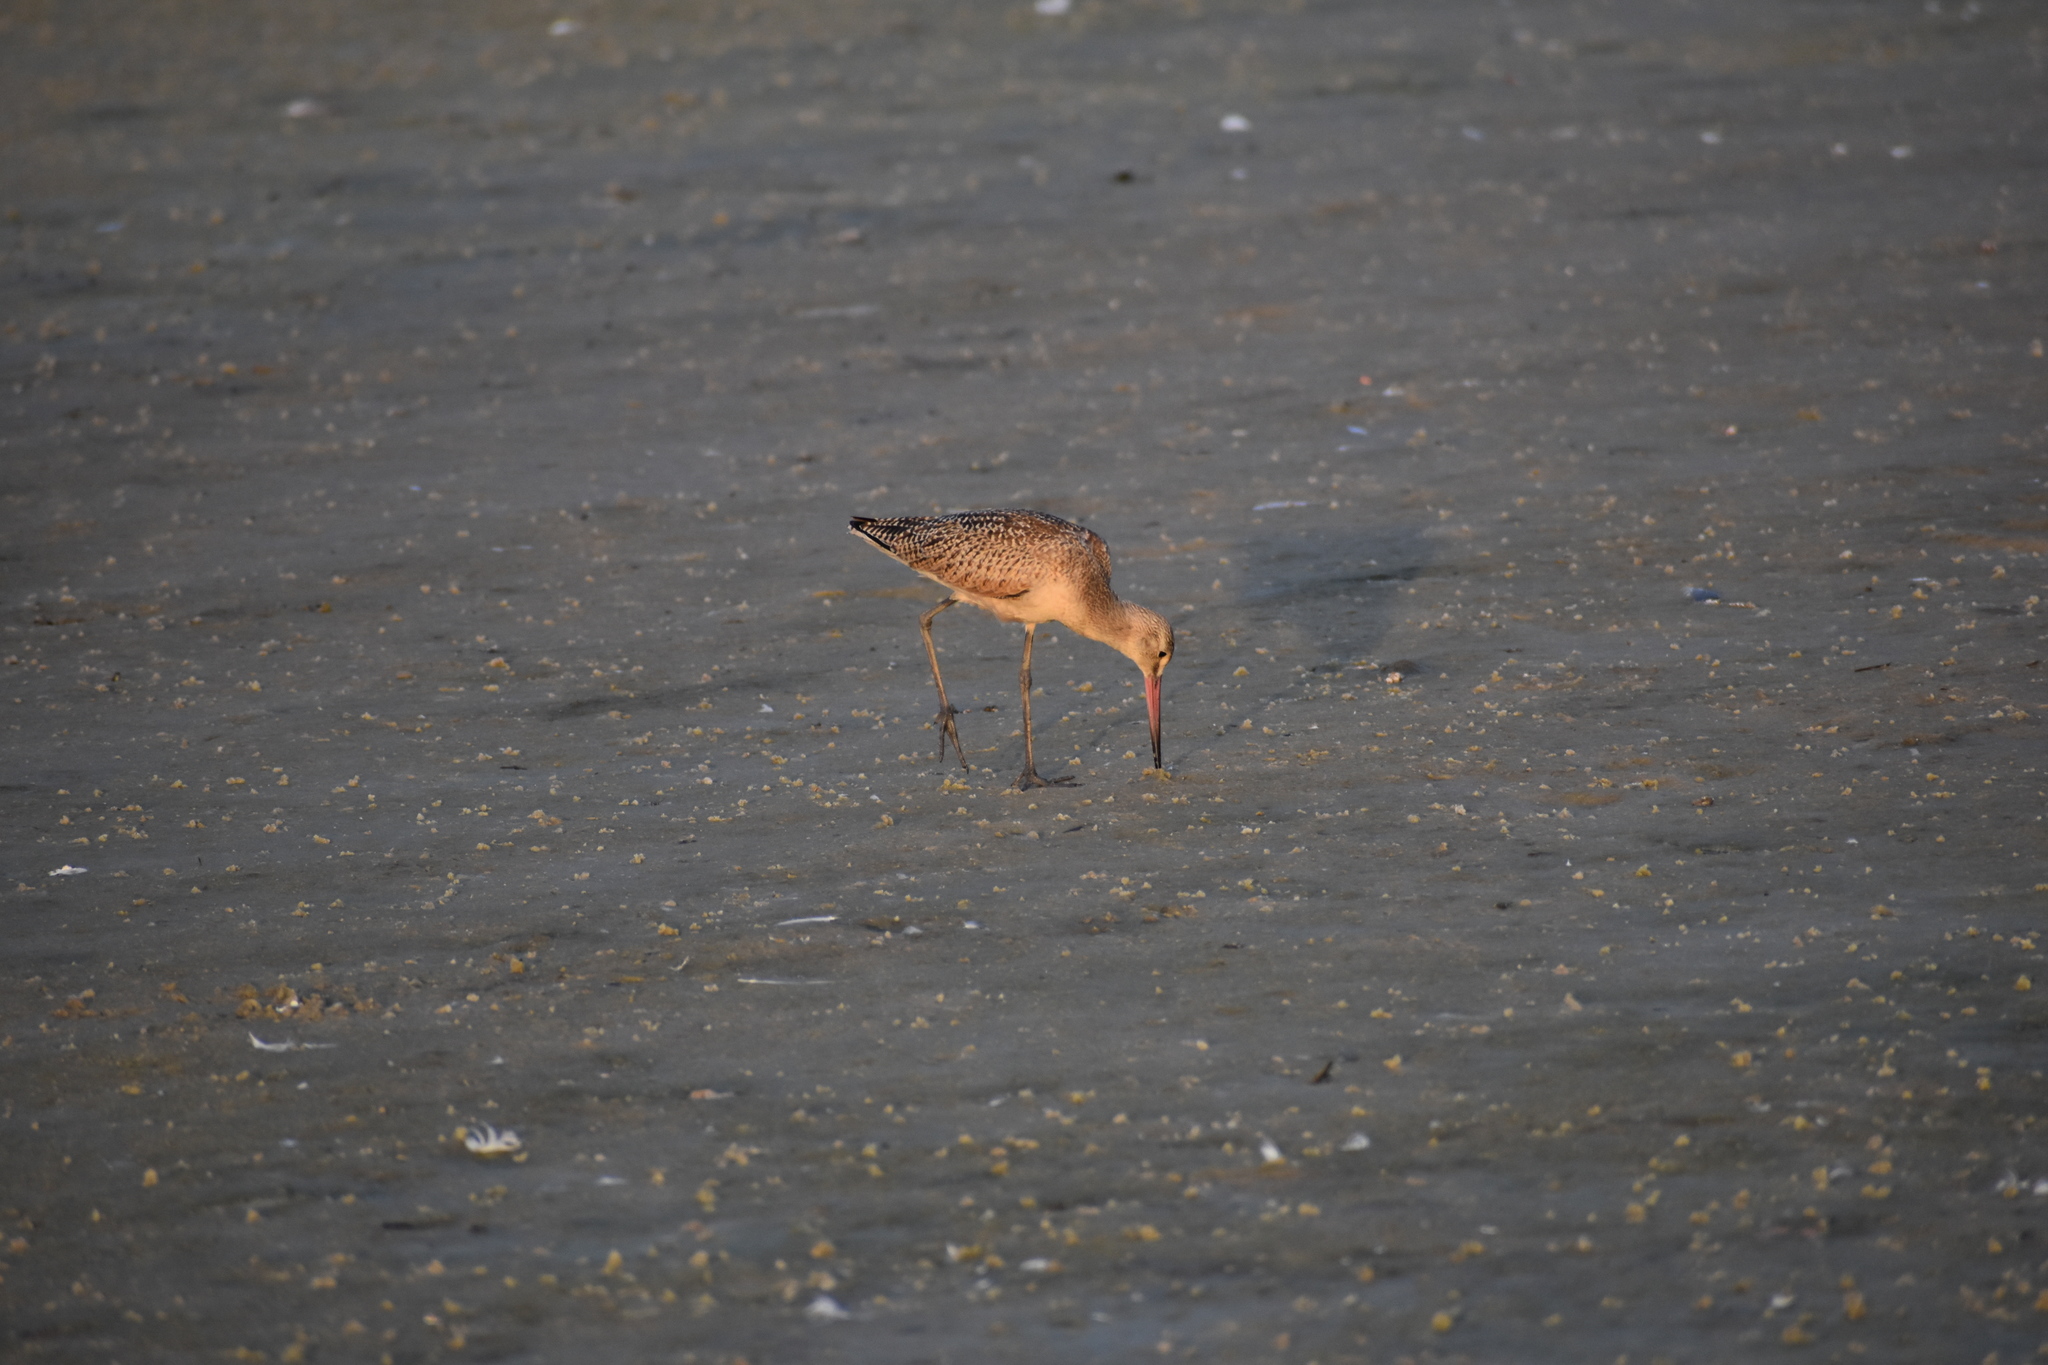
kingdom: Animalia
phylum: Chordata
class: Aves
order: Charadriiformes
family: Scolopacidae
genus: Limosa
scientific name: Limosa fedoa
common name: Marbled godwit
